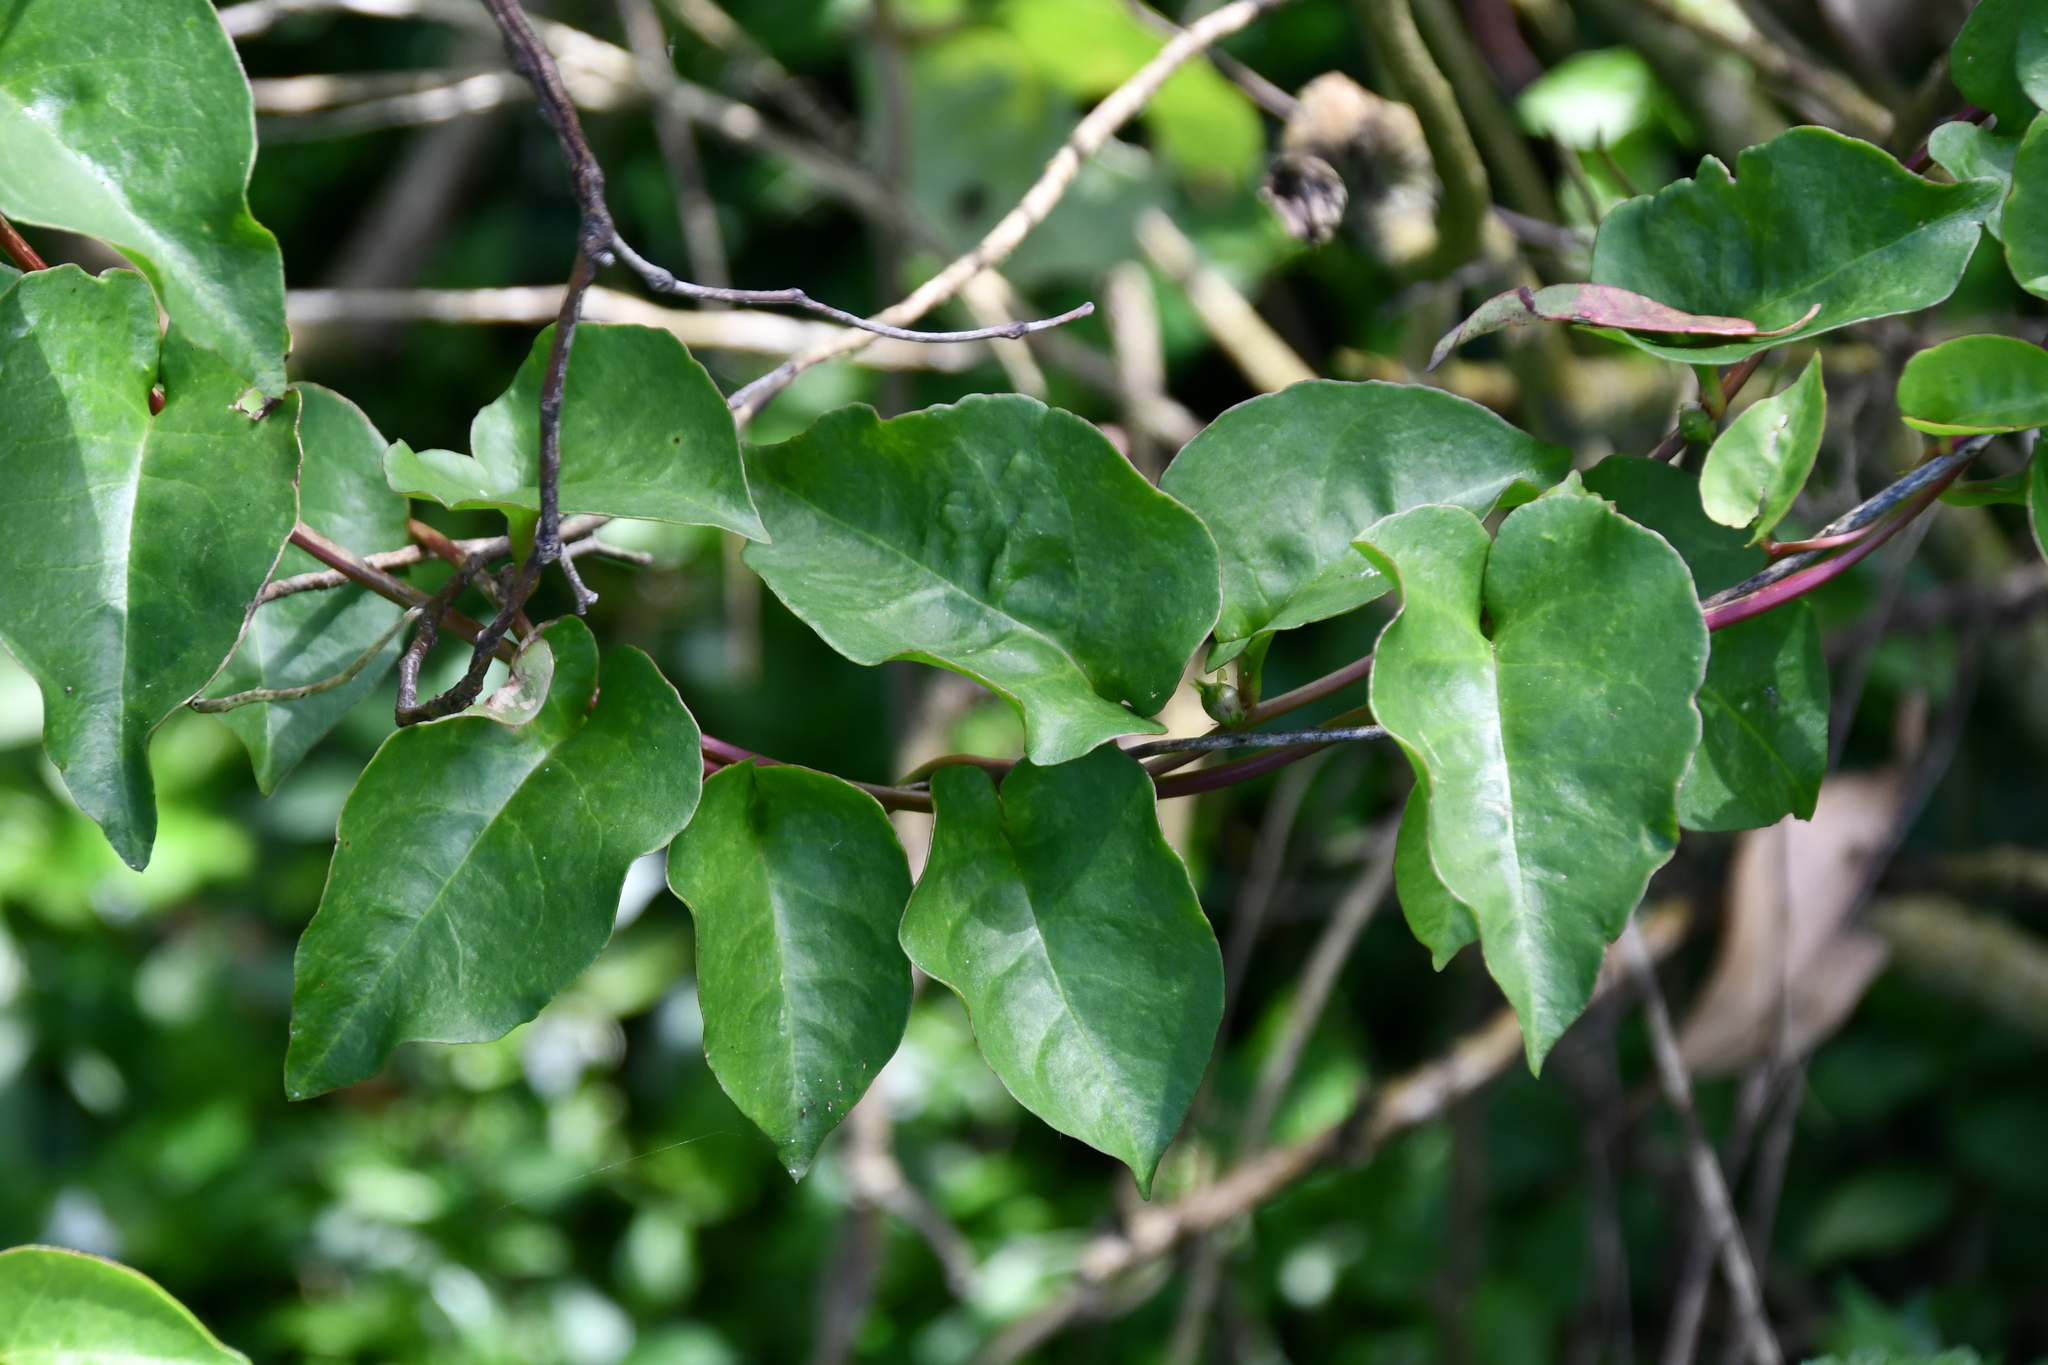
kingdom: Plantae
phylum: Tracheophyta
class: Magnoliopsida
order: Caryophyllales
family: Basellaceae
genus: Anredera
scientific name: Anredera cordifolia
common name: Heartleaf madeiravine
